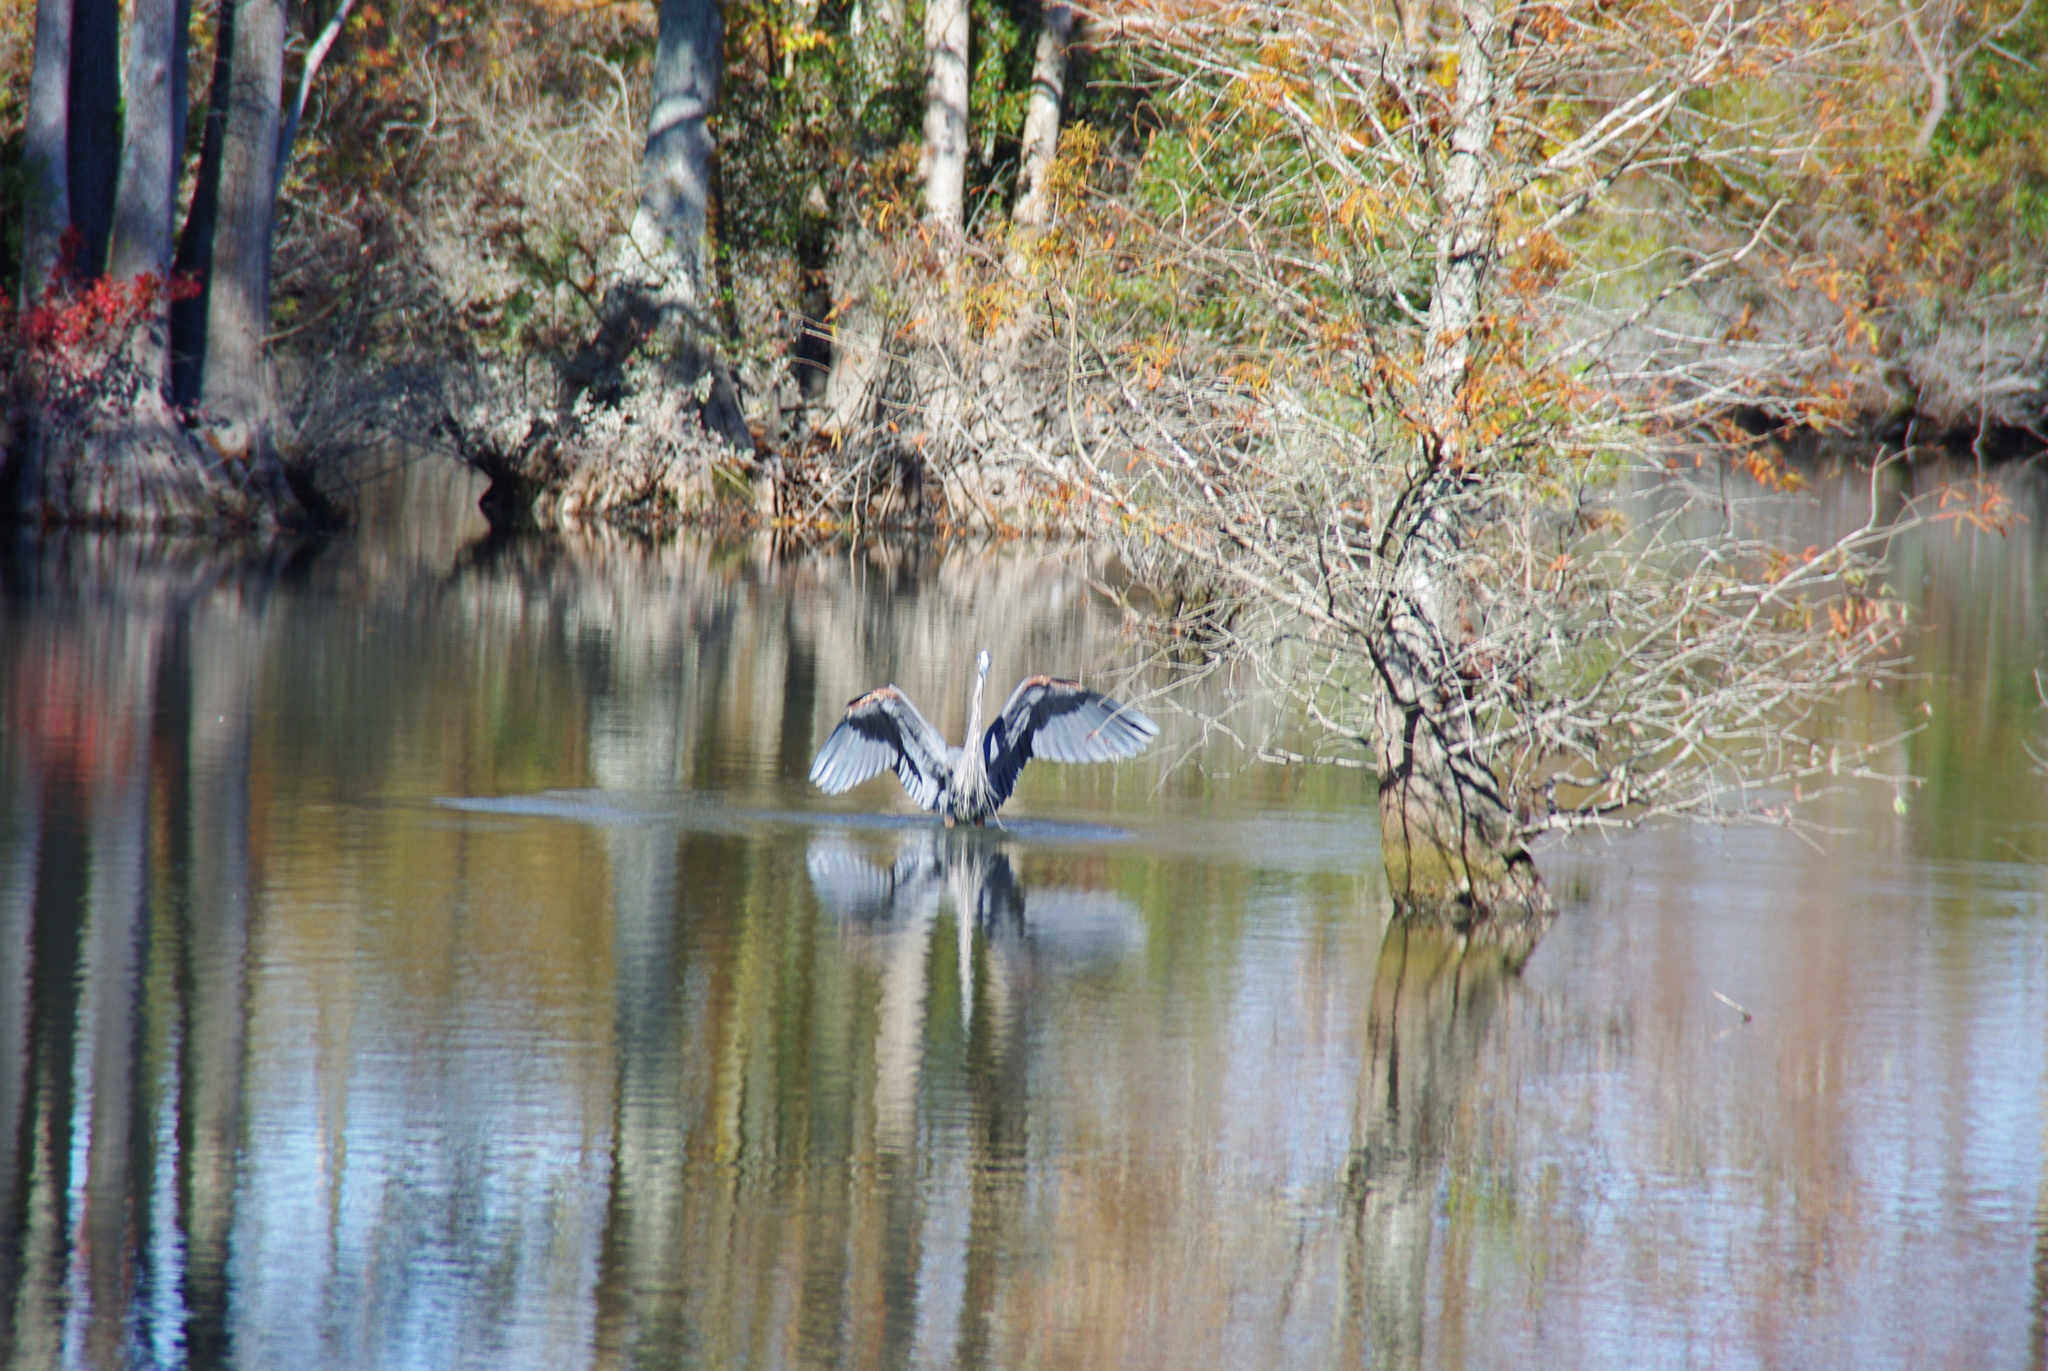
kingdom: Animalia
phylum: Chordata
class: Aves
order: Pelecaniformes
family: Ardeidae
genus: Ardea
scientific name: Ardea herodias
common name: Great blue heron
